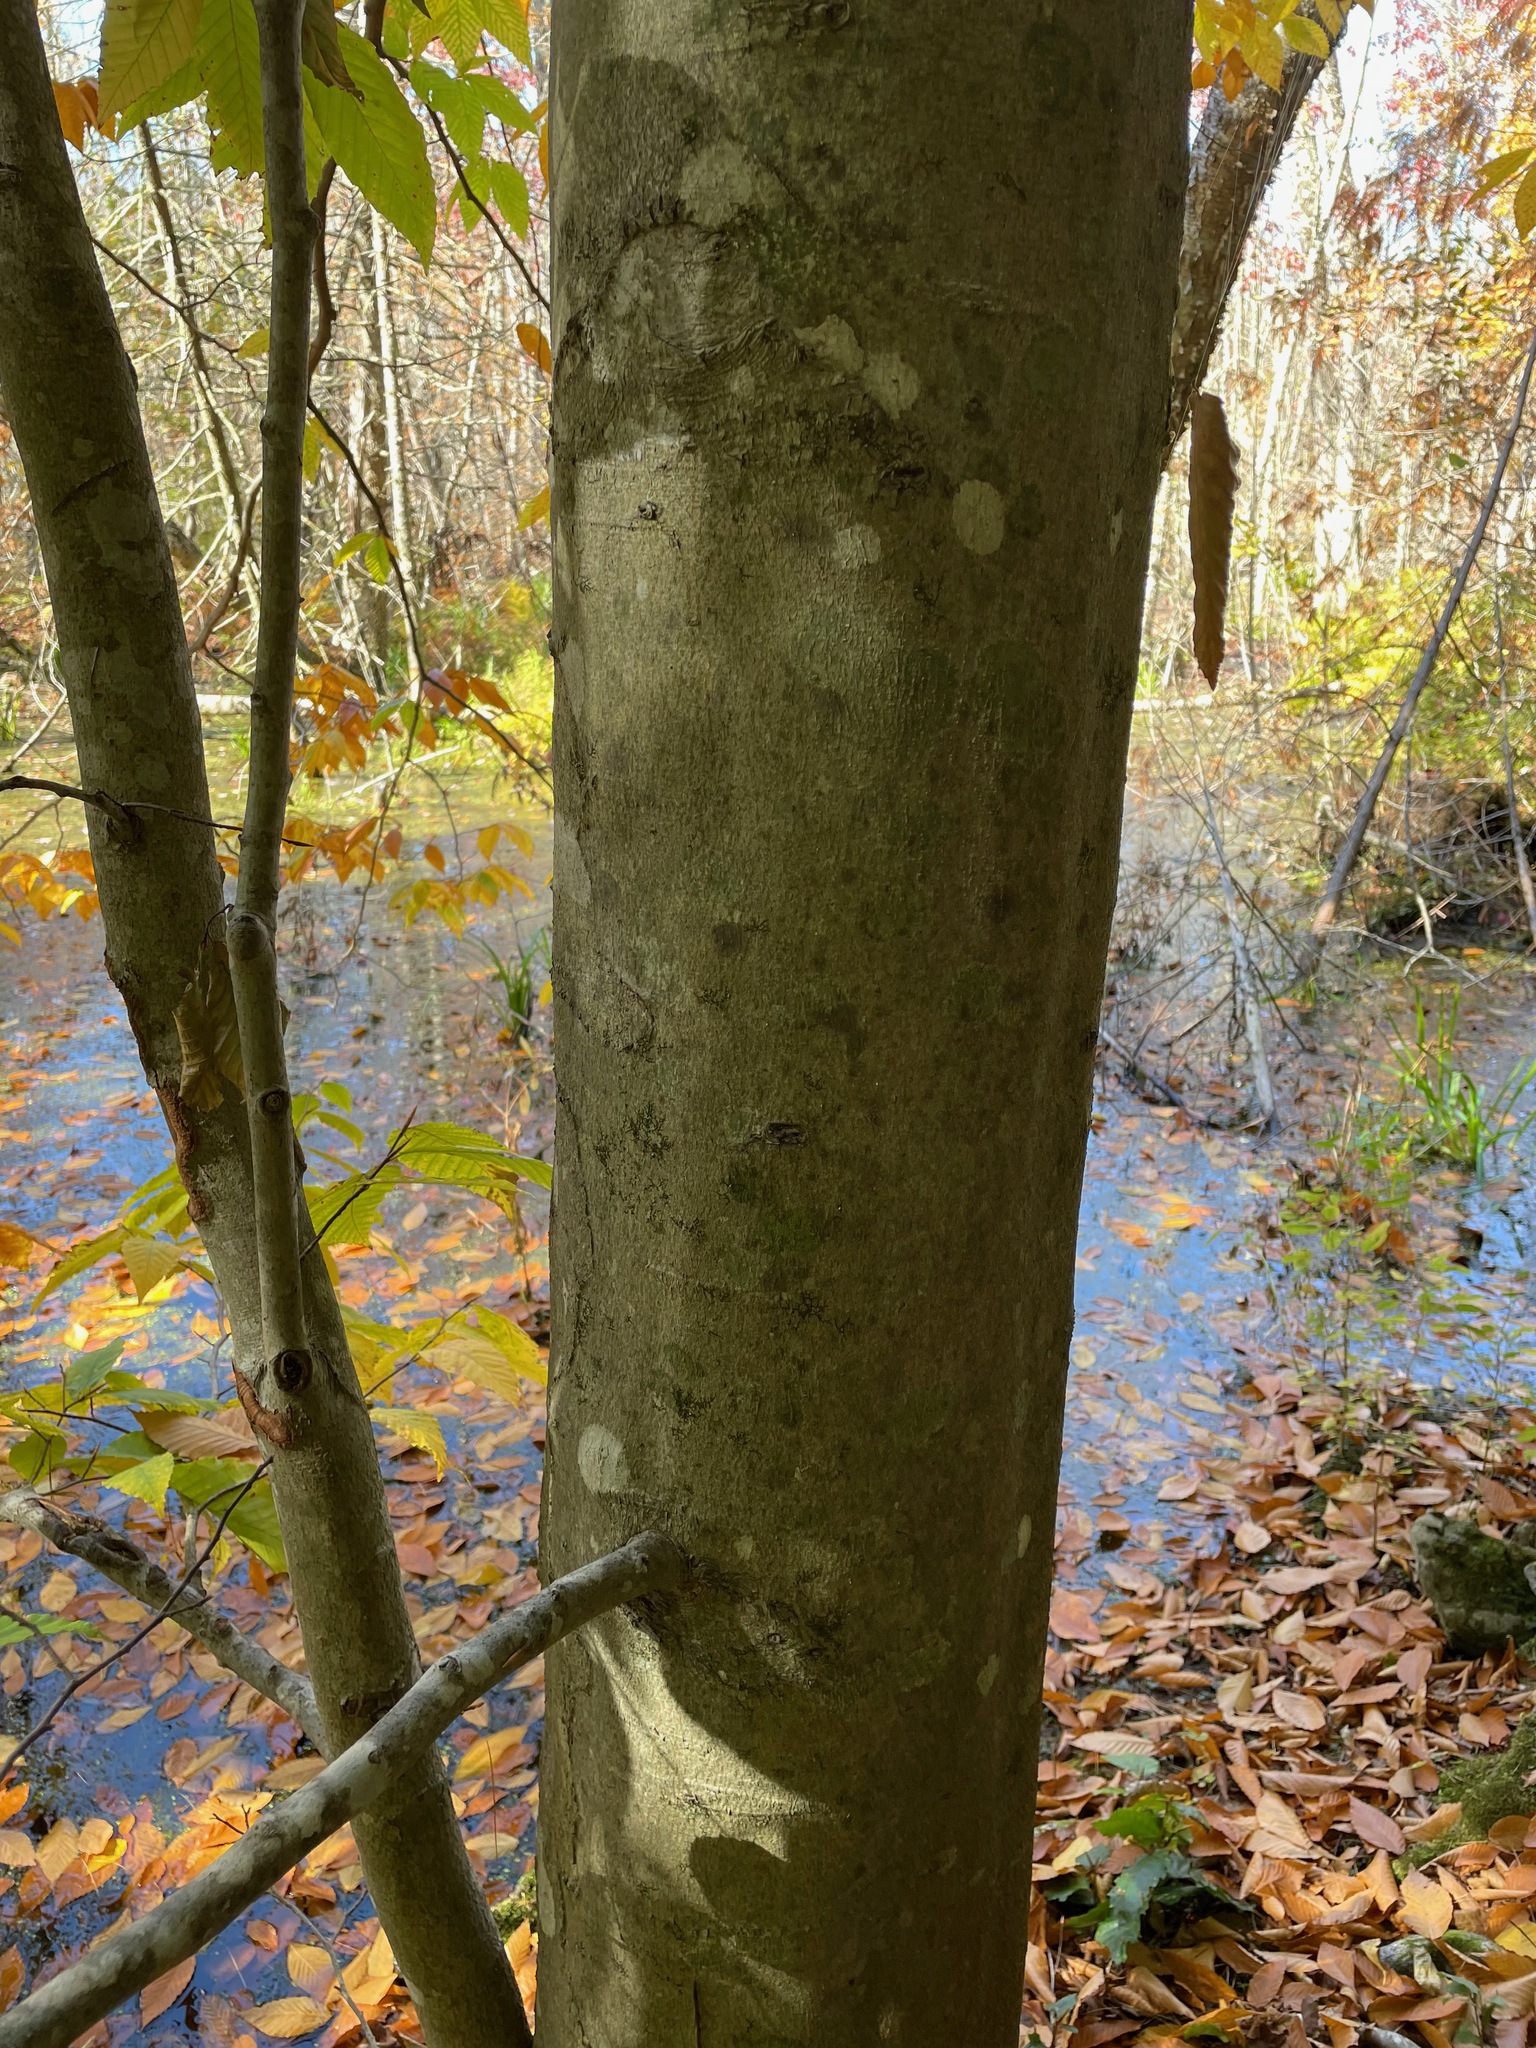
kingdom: Plantae
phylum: Tracheophyta
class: Magnoliopsida
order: Fagales
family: Fagaceae
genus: Fagus
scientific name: Fagus grandifolia
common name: American beech
